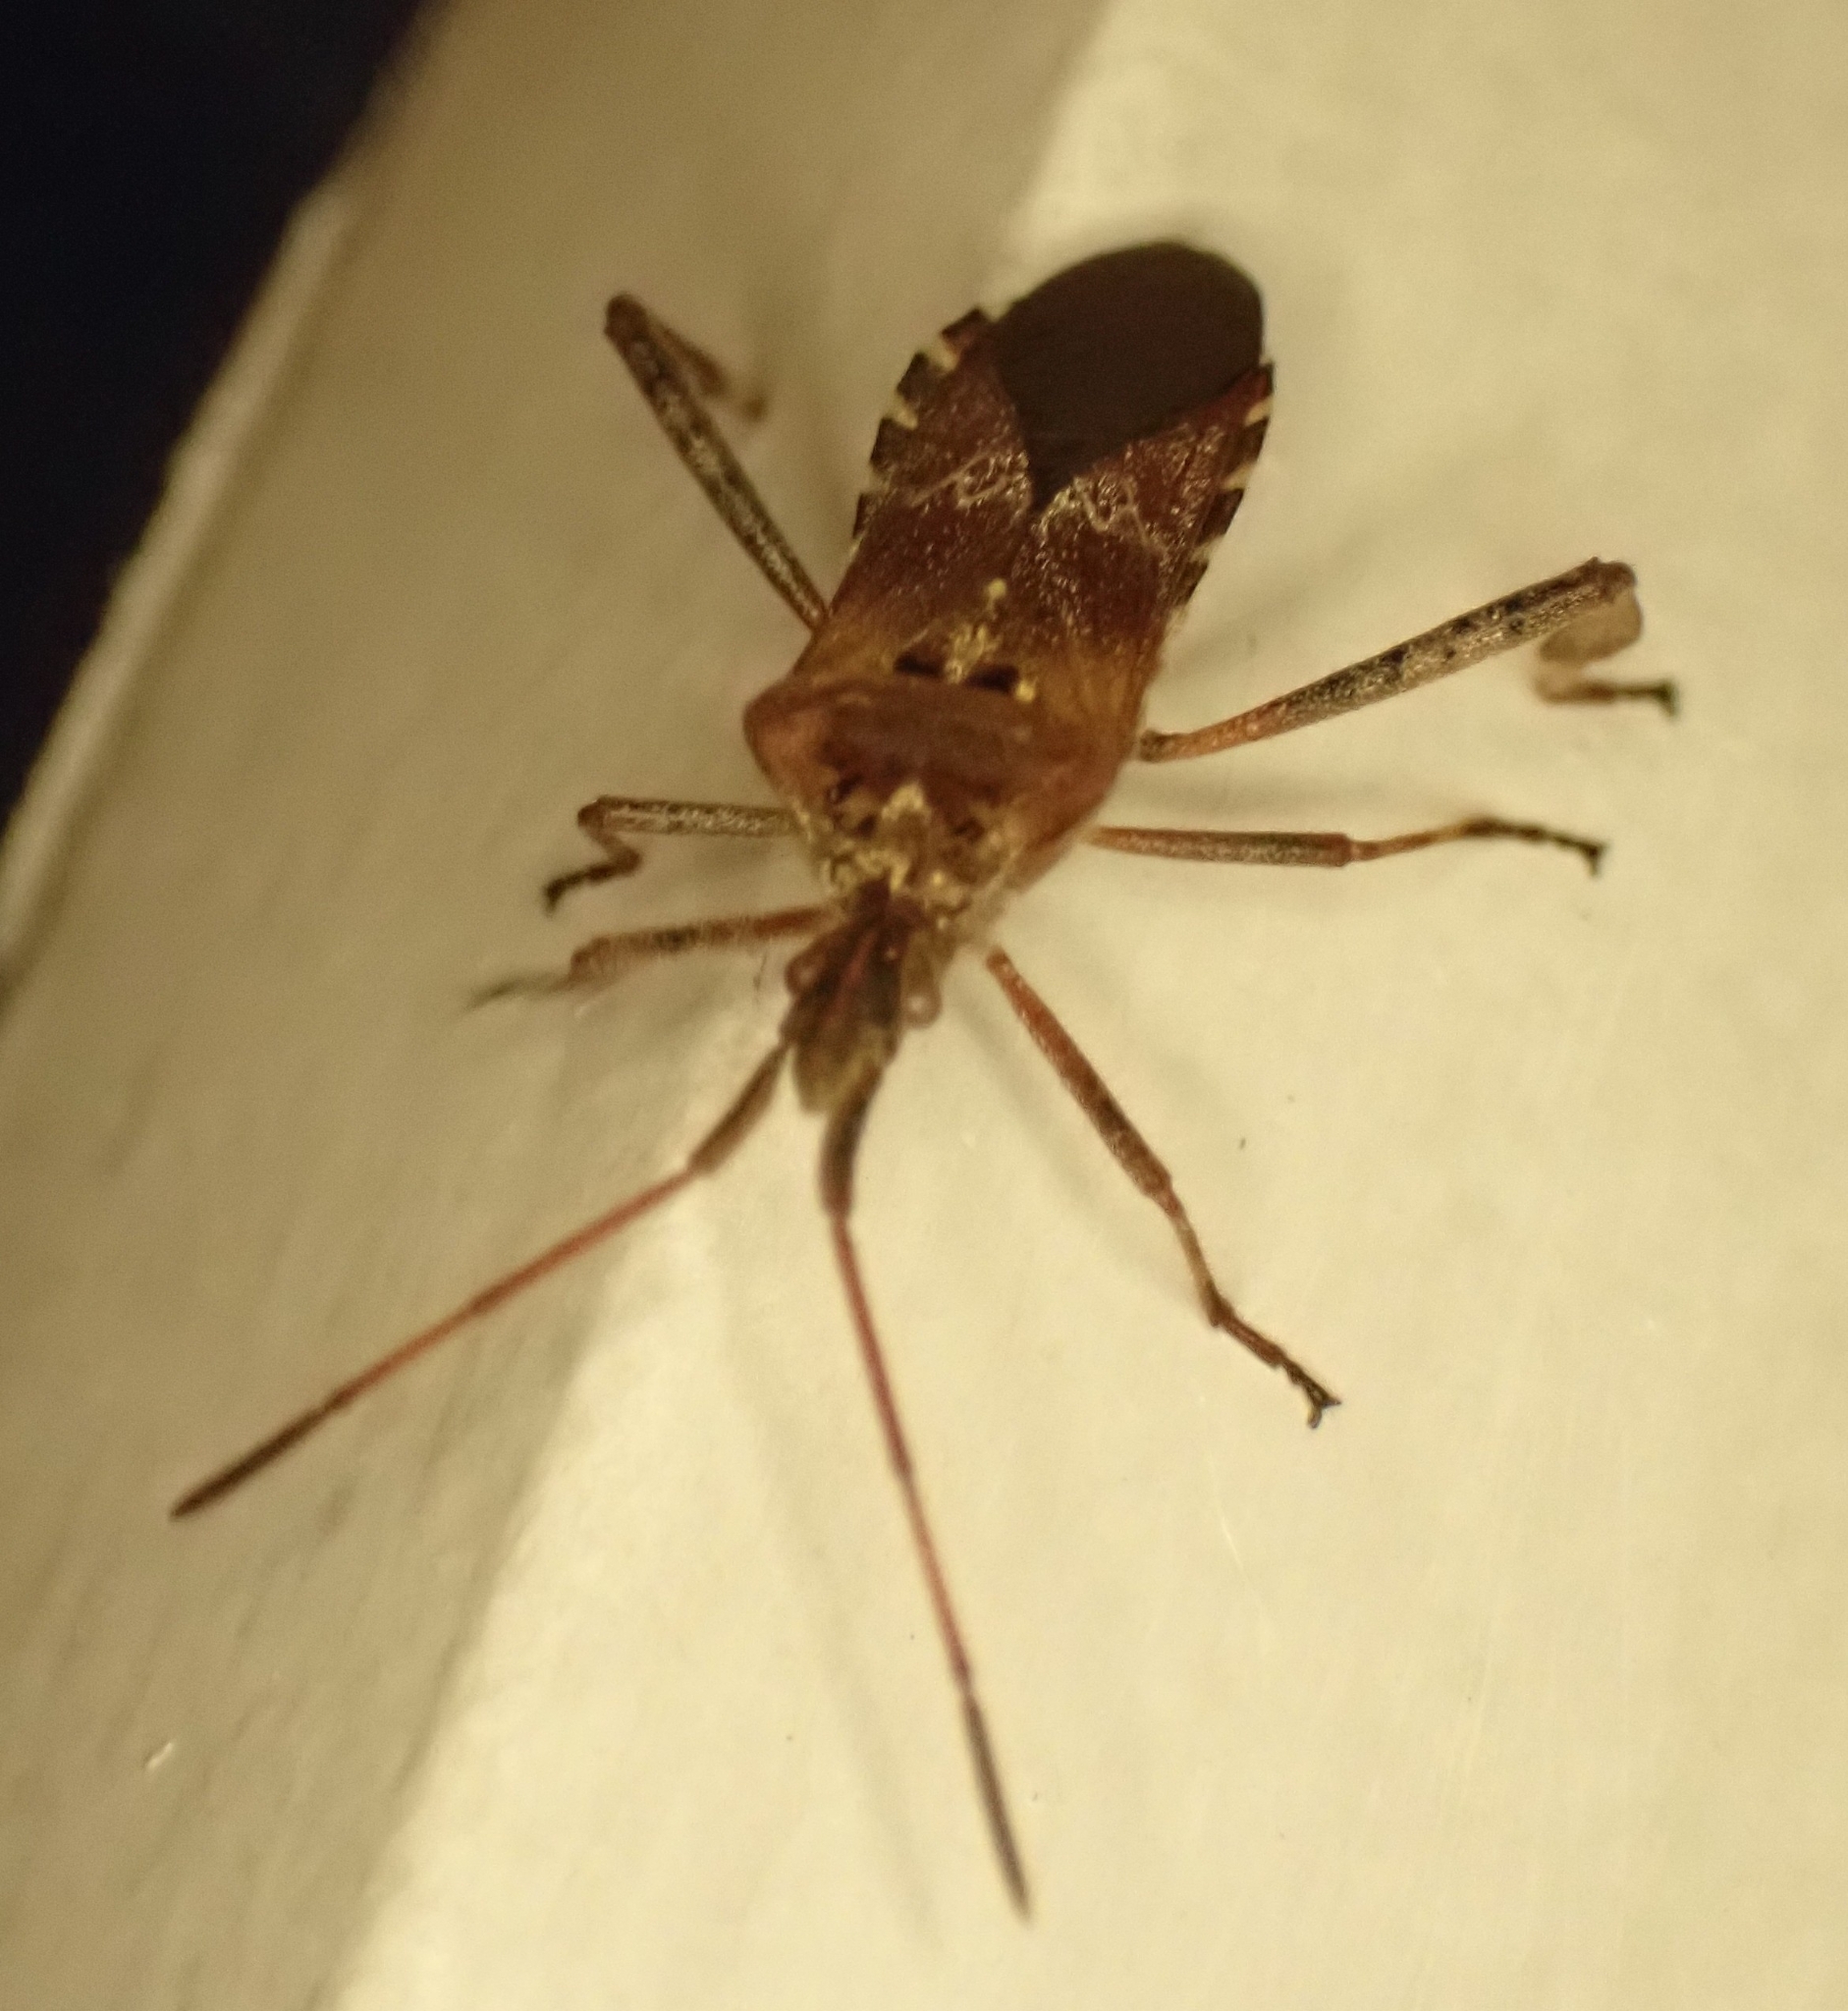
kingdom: Animalia
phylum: Arthropoda
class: Insecta
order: Hemiptera
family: Coreidae
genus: Leptoglossus
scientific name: Leptoglossus occidentalis
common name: Western conifer-seed bug
